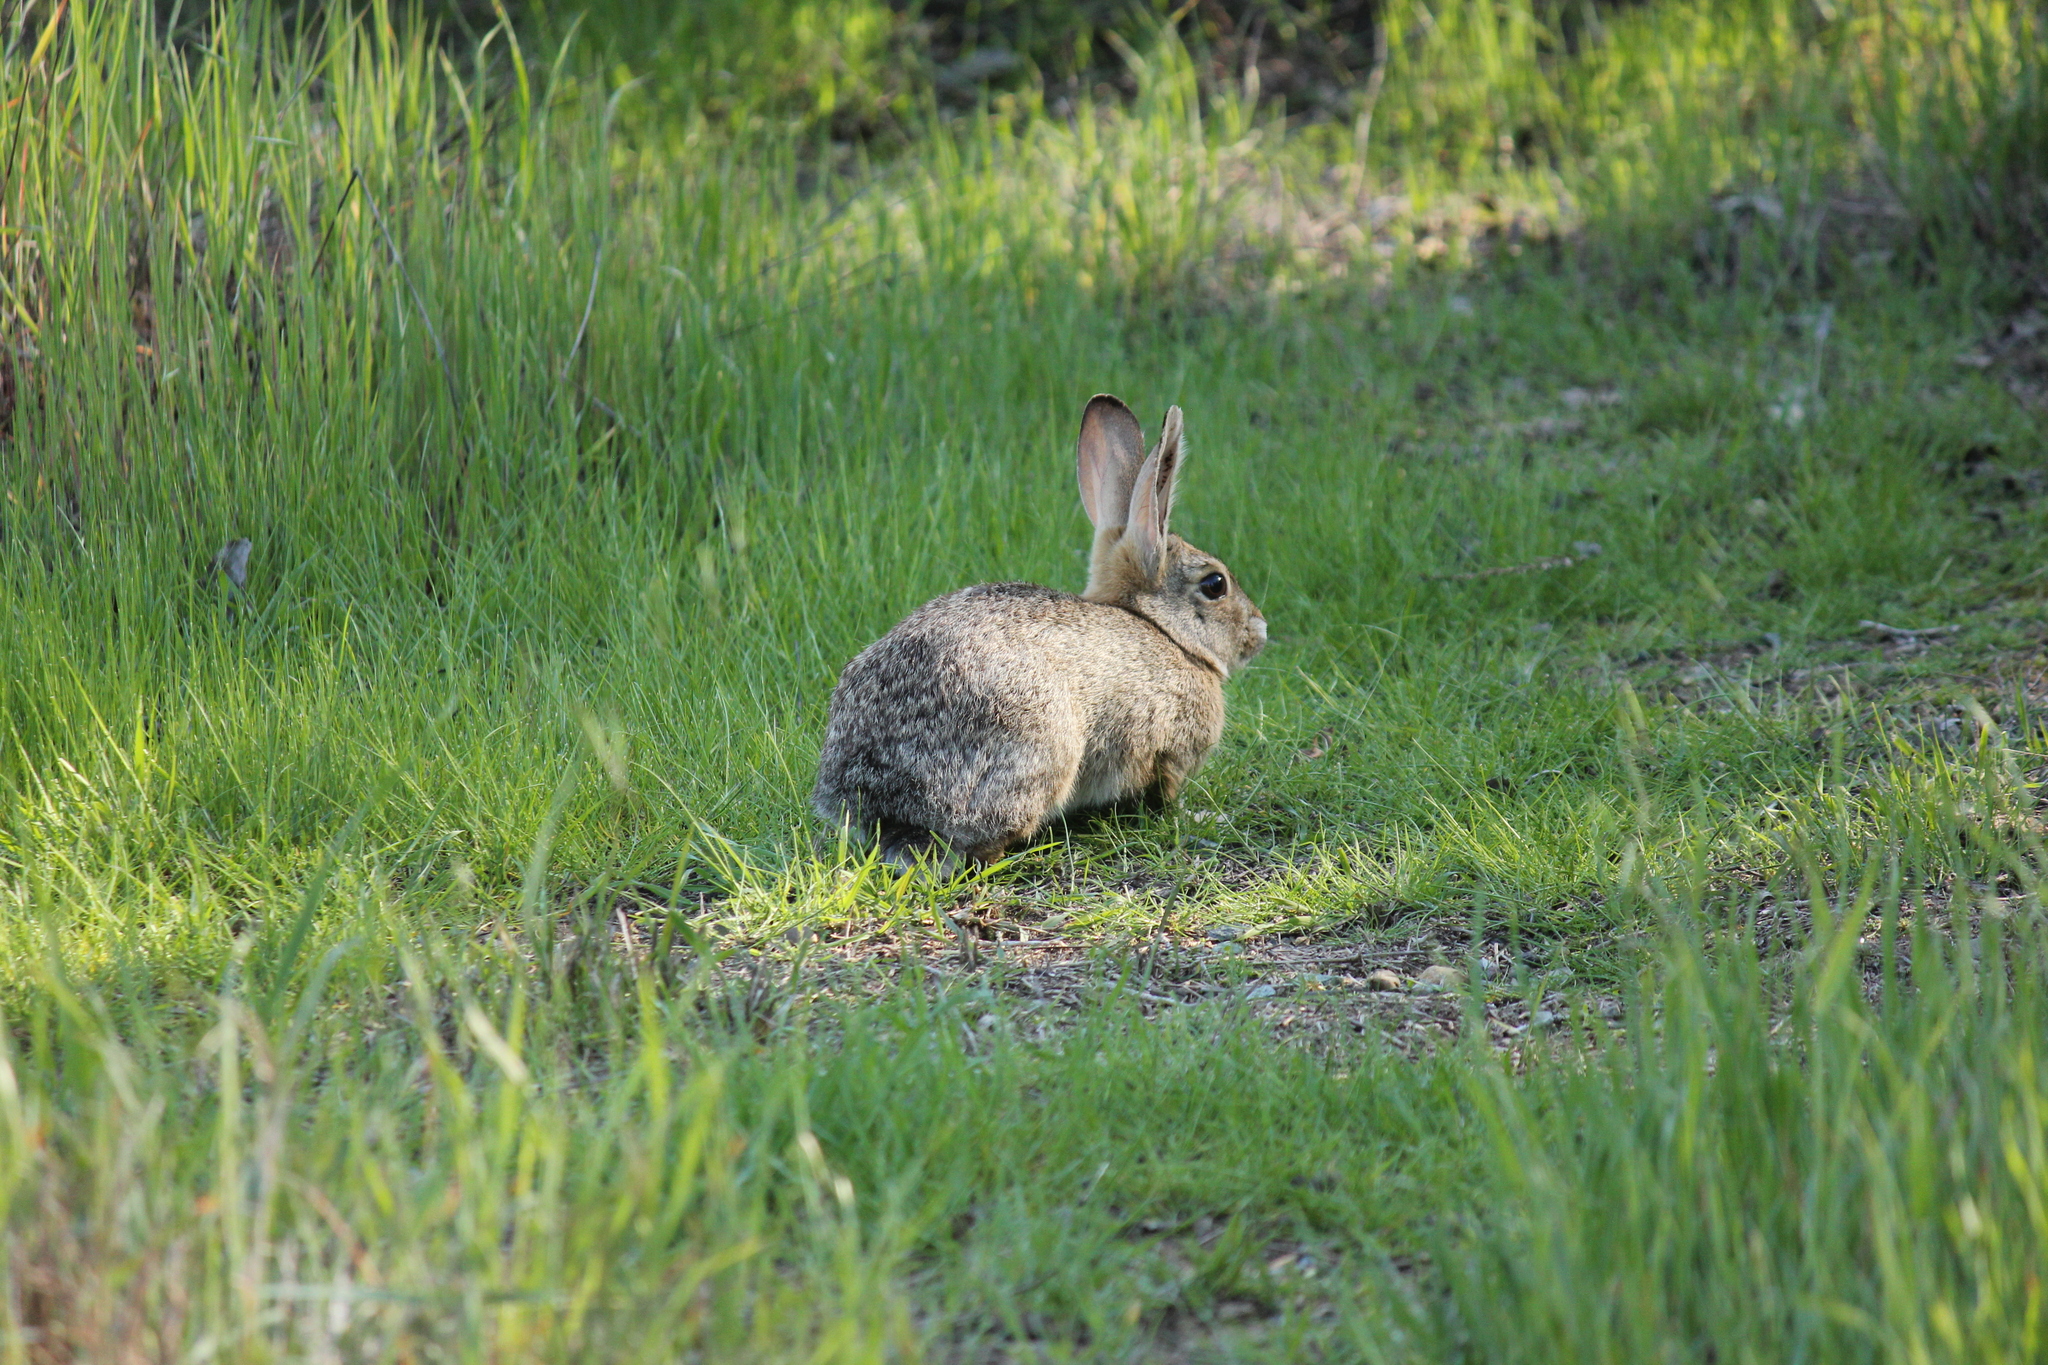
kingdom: Animalia
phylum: Chordata
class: Mammalia
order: Lagomorpha
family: Leporidae
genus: Sylvilagus
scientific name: Sylvilagus audubonii
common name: Desert cottontail
